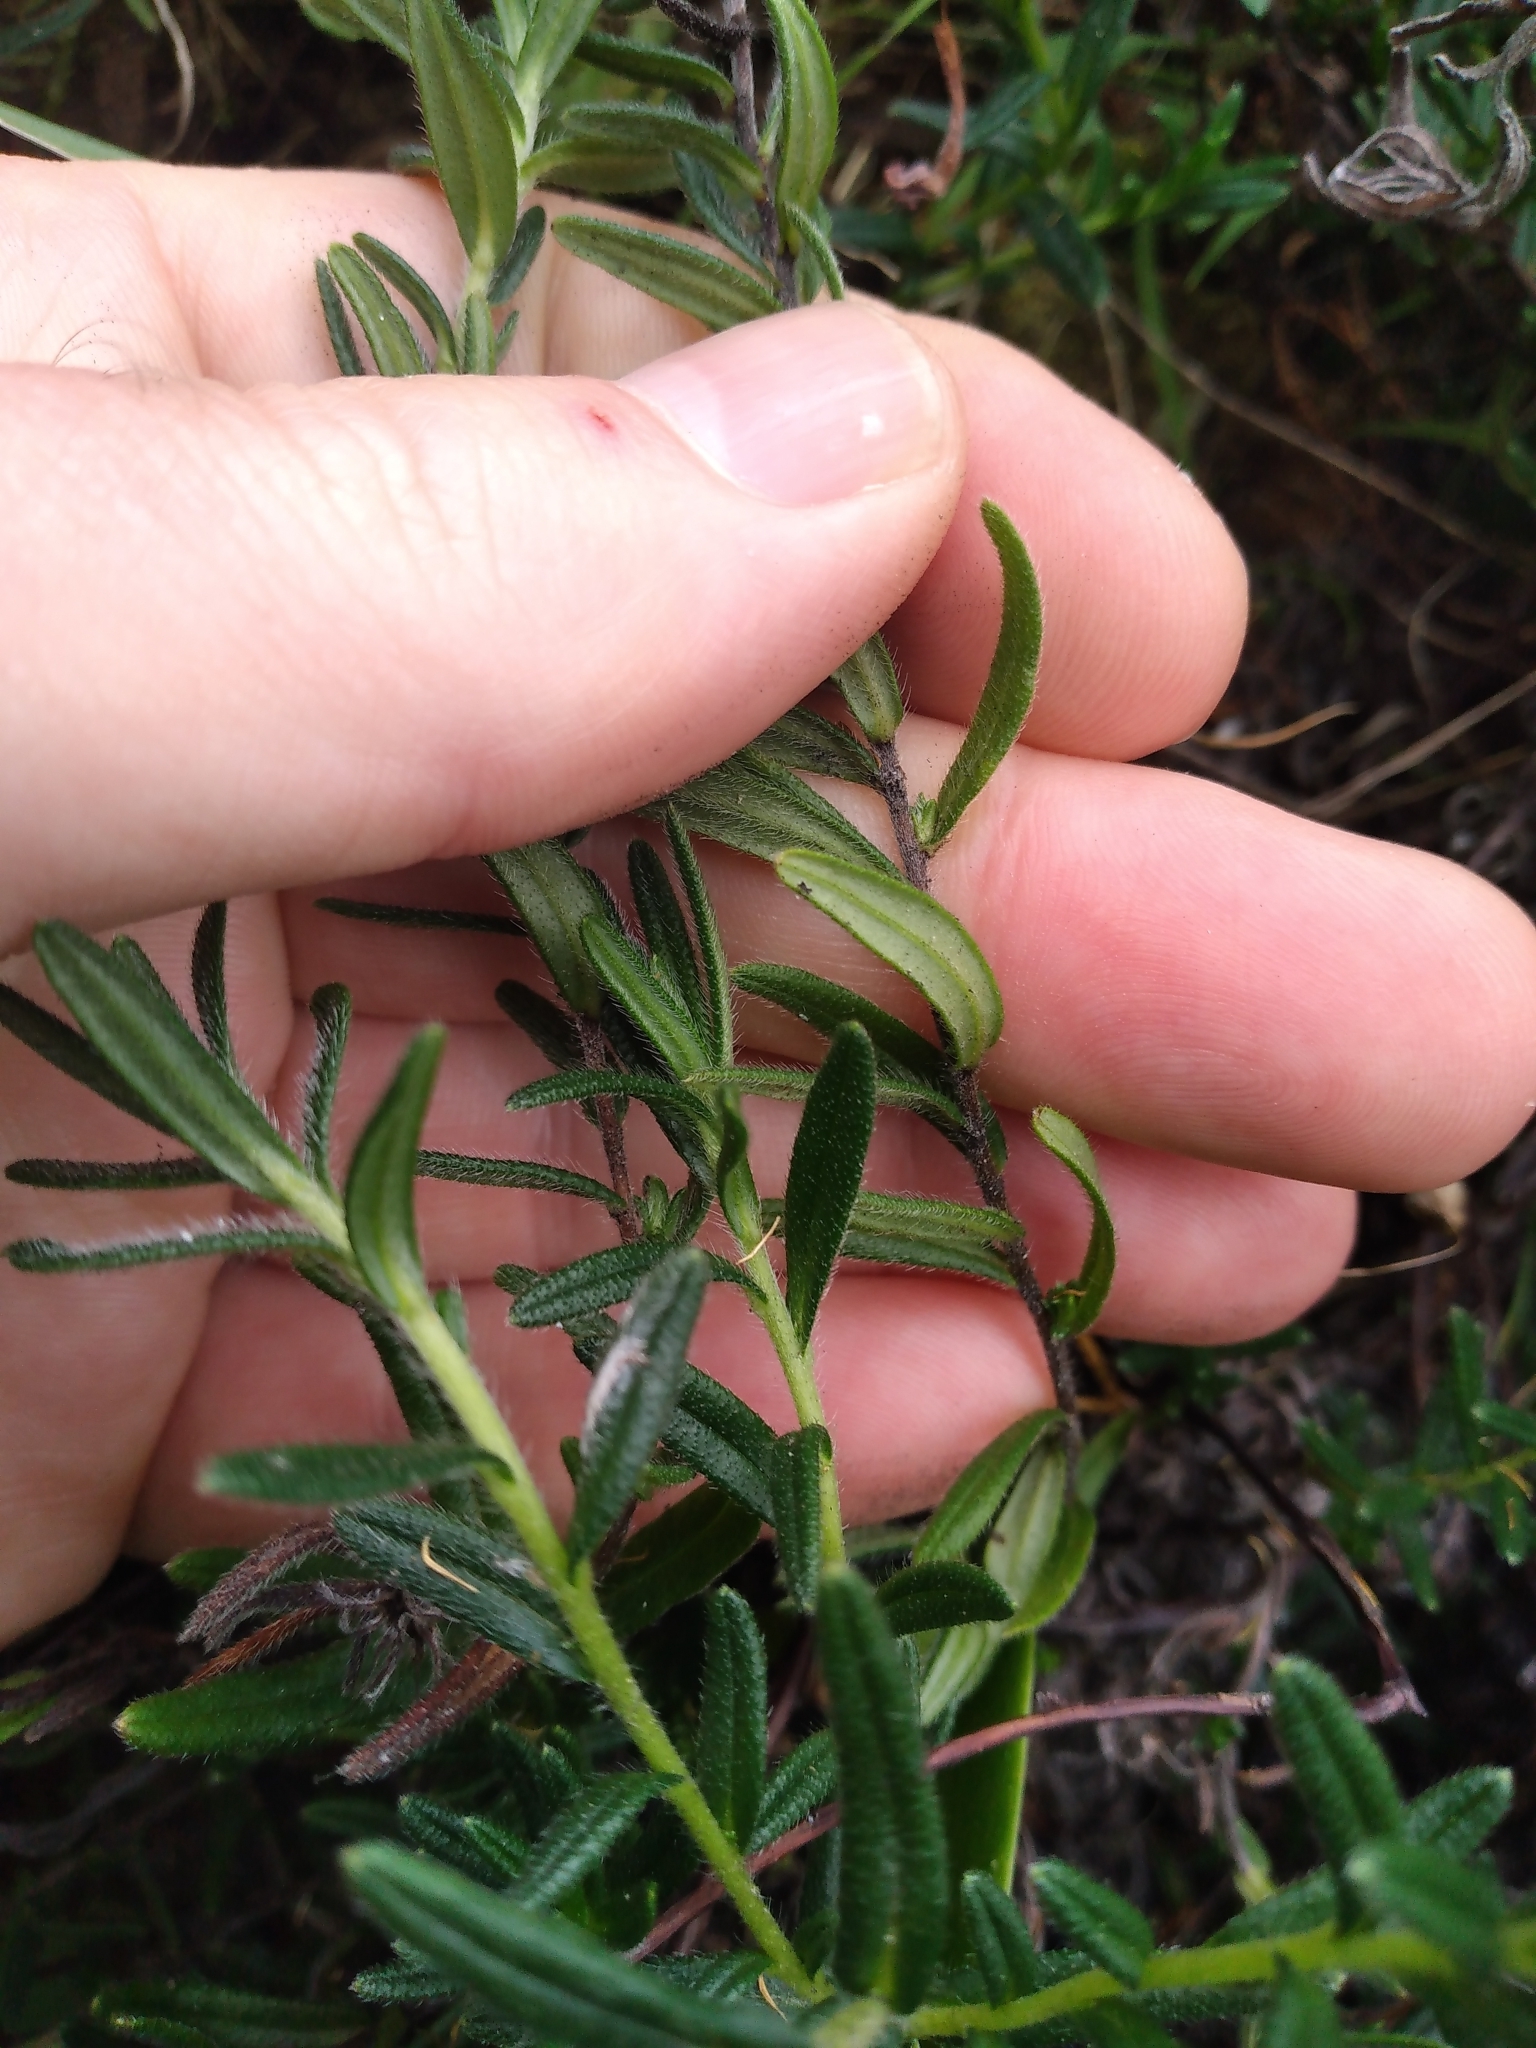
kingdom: Plantae
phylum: Tracheophyta
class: Magnoliopsida
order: Boraginales
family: Boraginaceae
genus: Glandora
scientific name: Glandora diffusa
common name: Shrubby-gromwell
